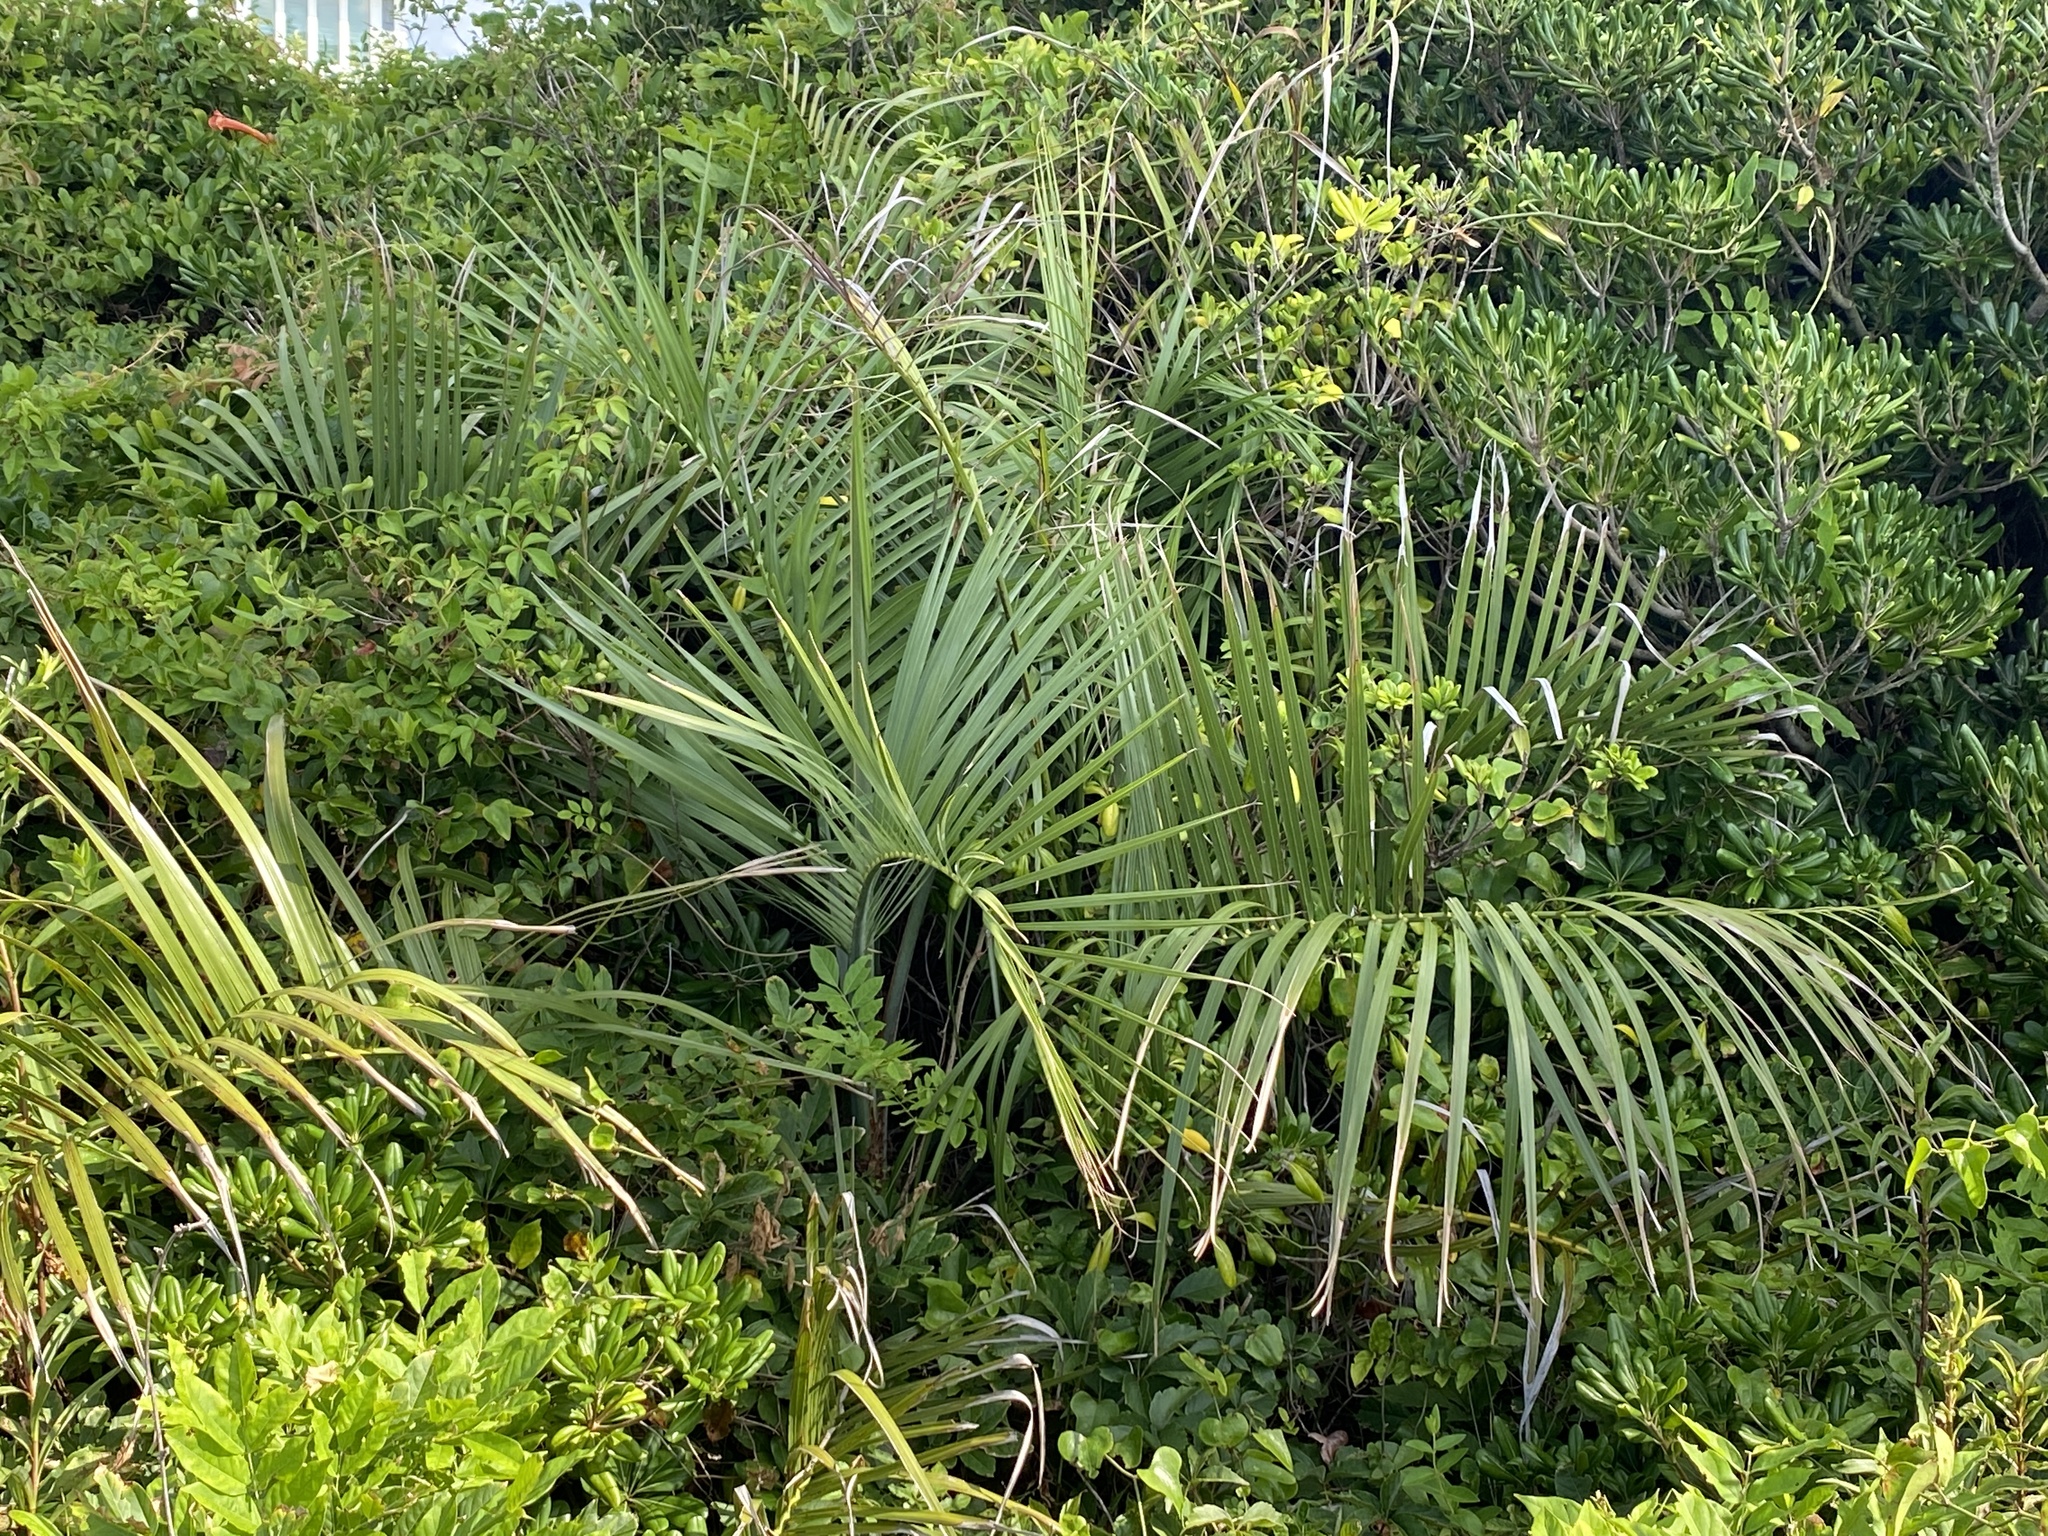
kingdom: Plantae
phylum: Tracheophyta
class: Liliopsida
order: Arecales
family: Arecaceae
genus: Butia
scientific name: Butia odorata
